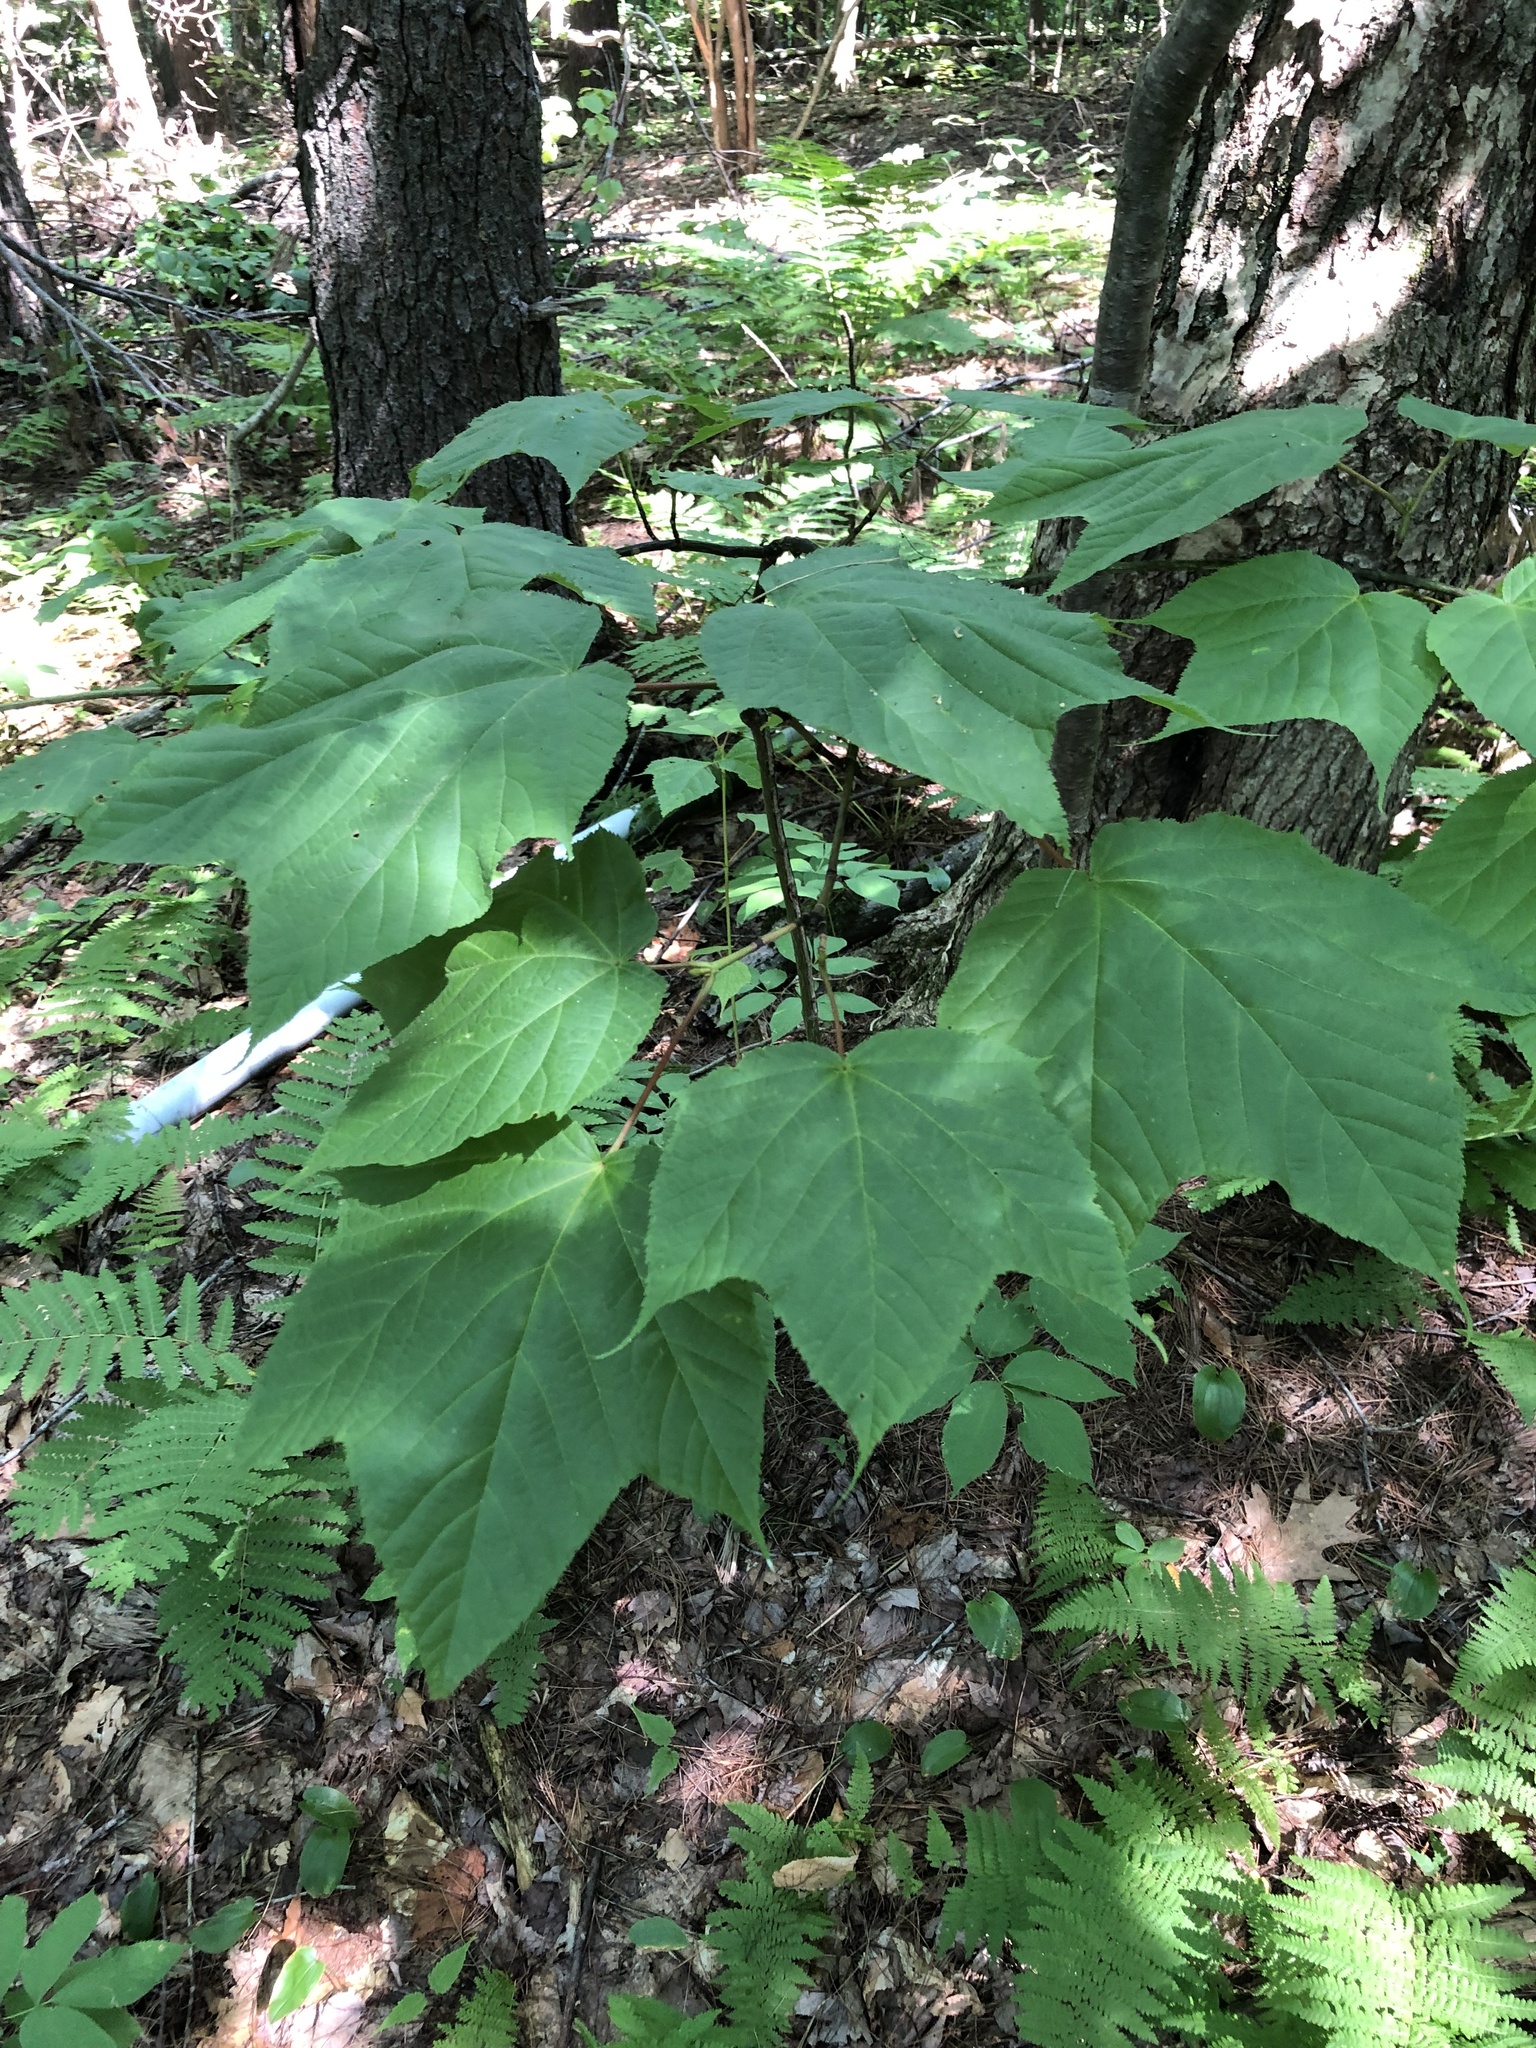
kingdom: Plantae
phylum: Tracheophyta
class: Magnoliopsida
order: Sapindales
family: Sapindaceae
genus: Acer
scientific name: Acer pensylvanicum
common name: Moosewood
